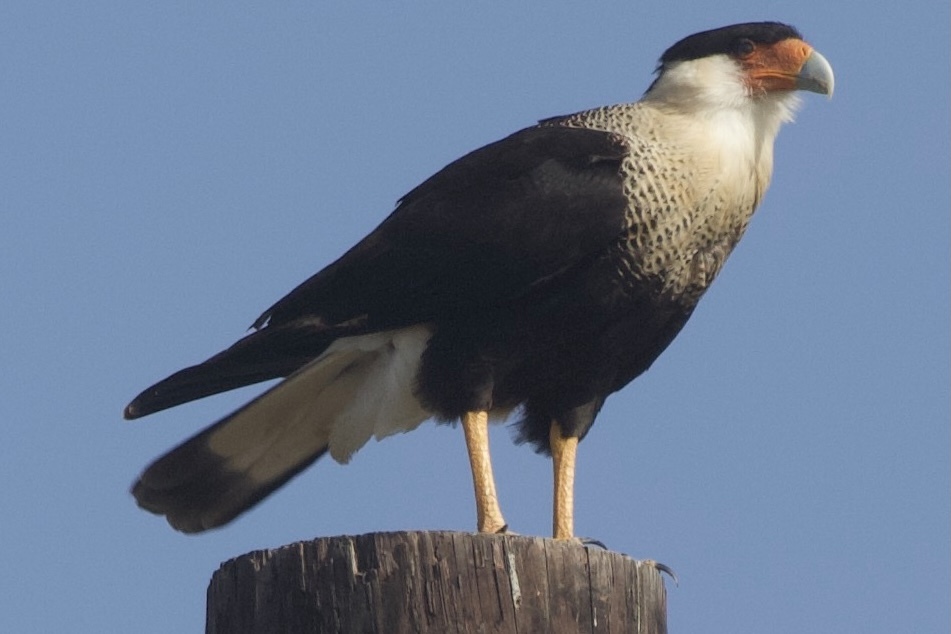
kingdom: Animalia
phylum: Chordata
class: Aves
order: Falconiformes
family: Falconidae
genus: Caracara
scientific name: Caracara plancus
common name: Southern caracara
